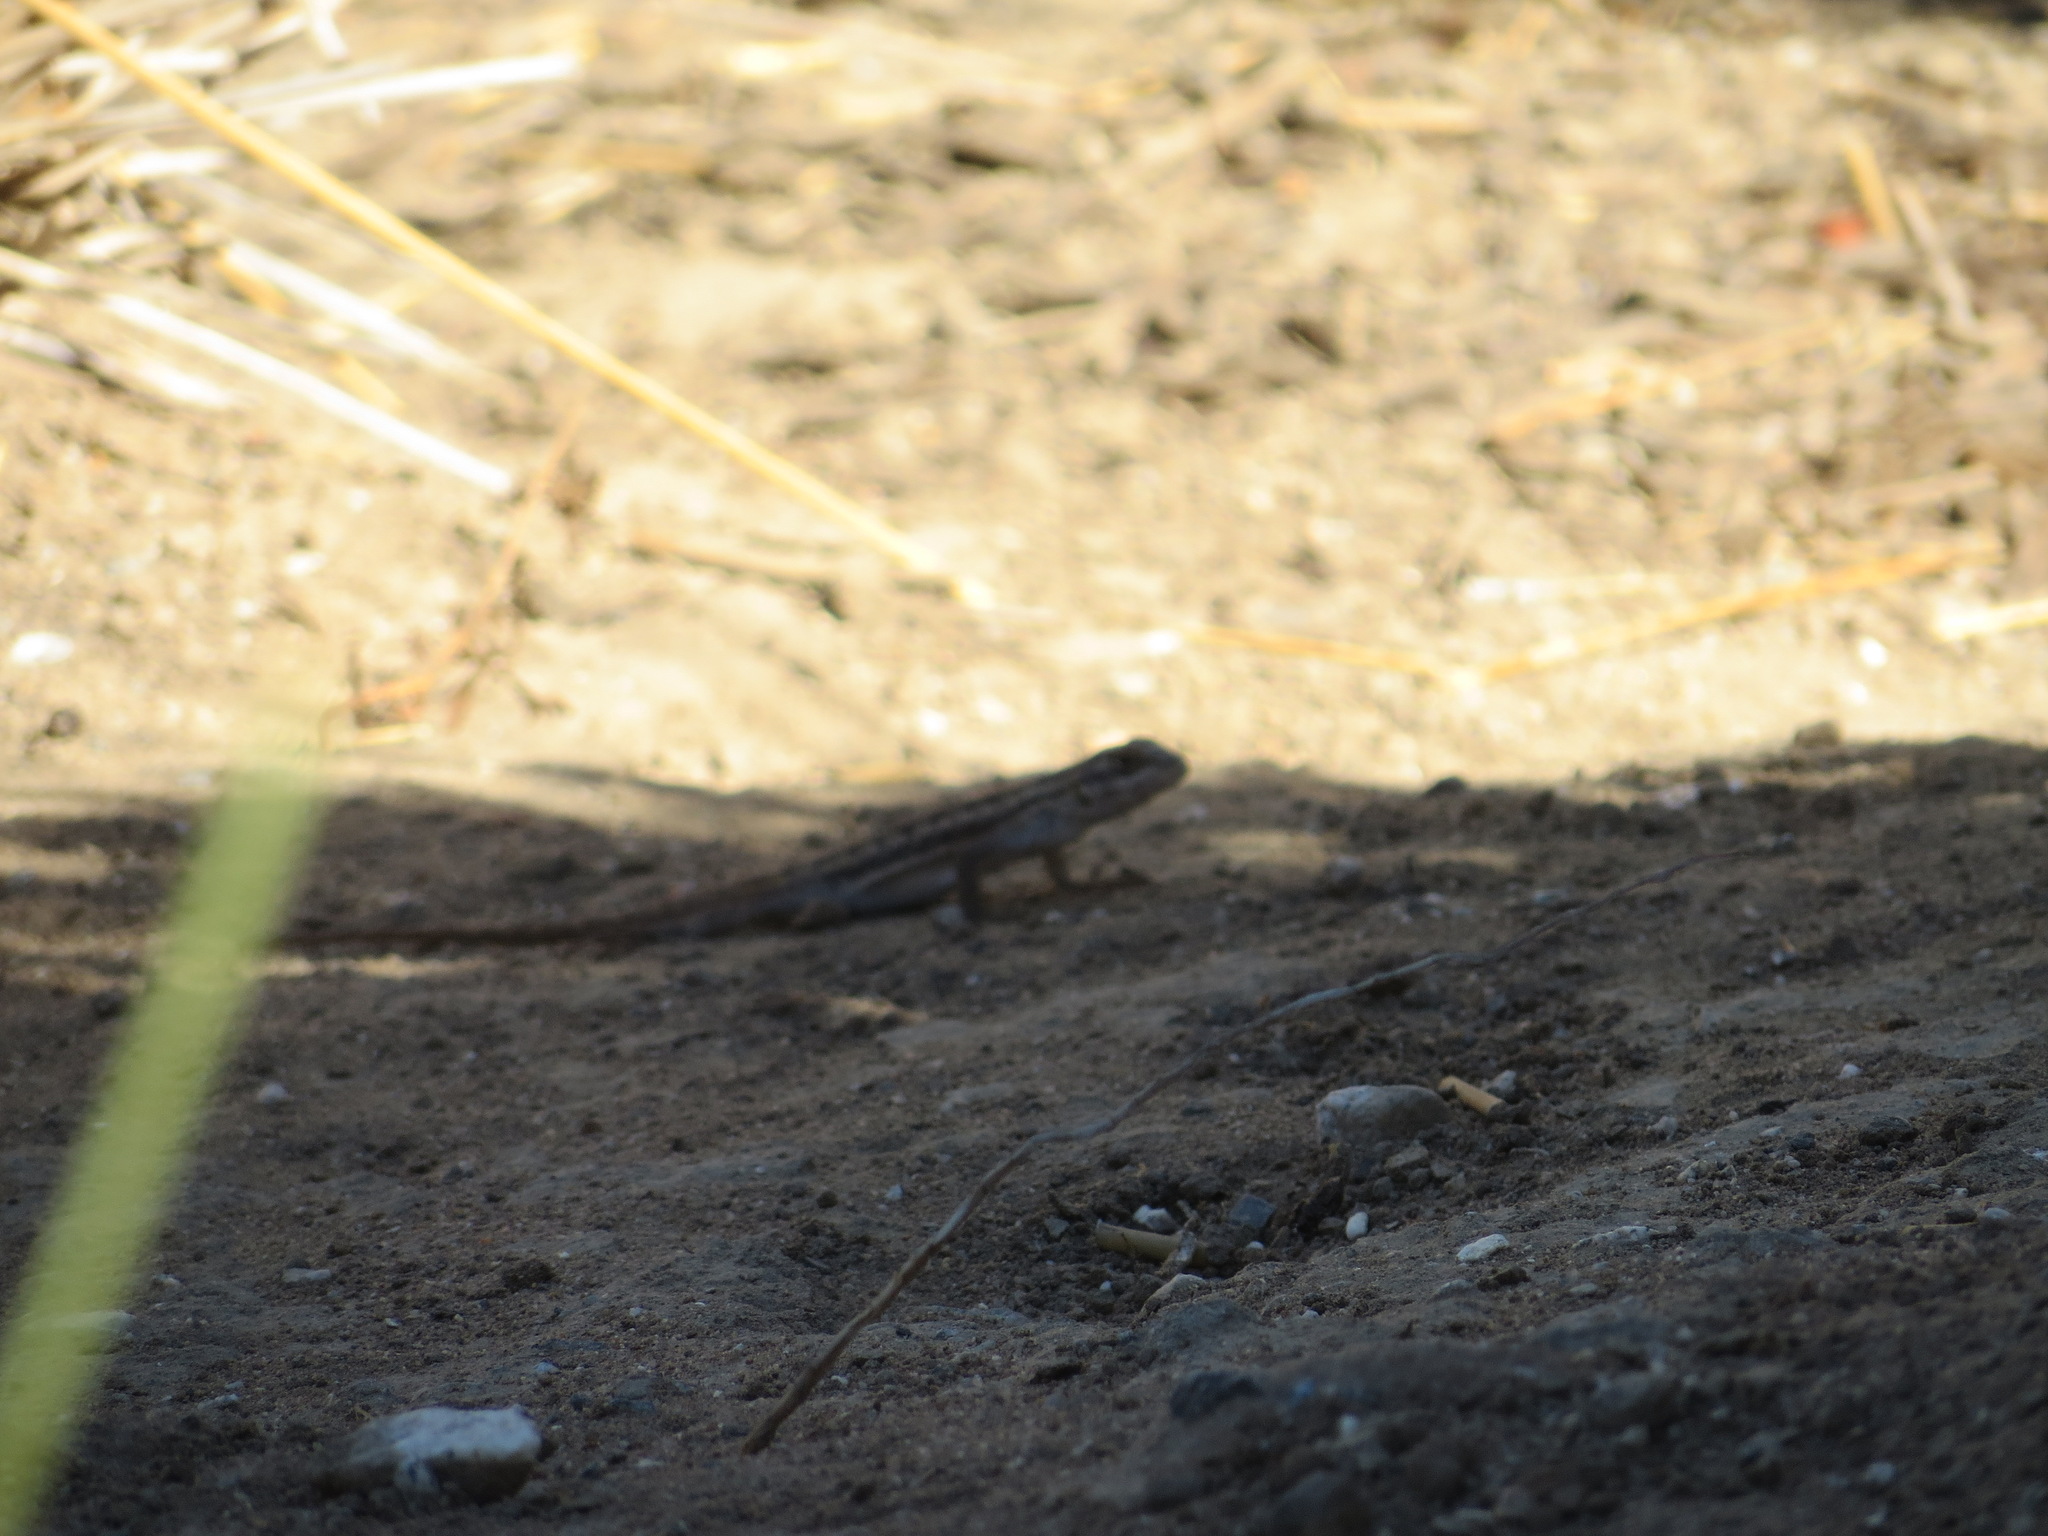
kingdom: Animalia
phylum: Chordata
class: Squamata
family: Phrynosomatidae
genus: Sceloporus
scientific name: Sceloporus occidentalis
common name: Western fence lizard
